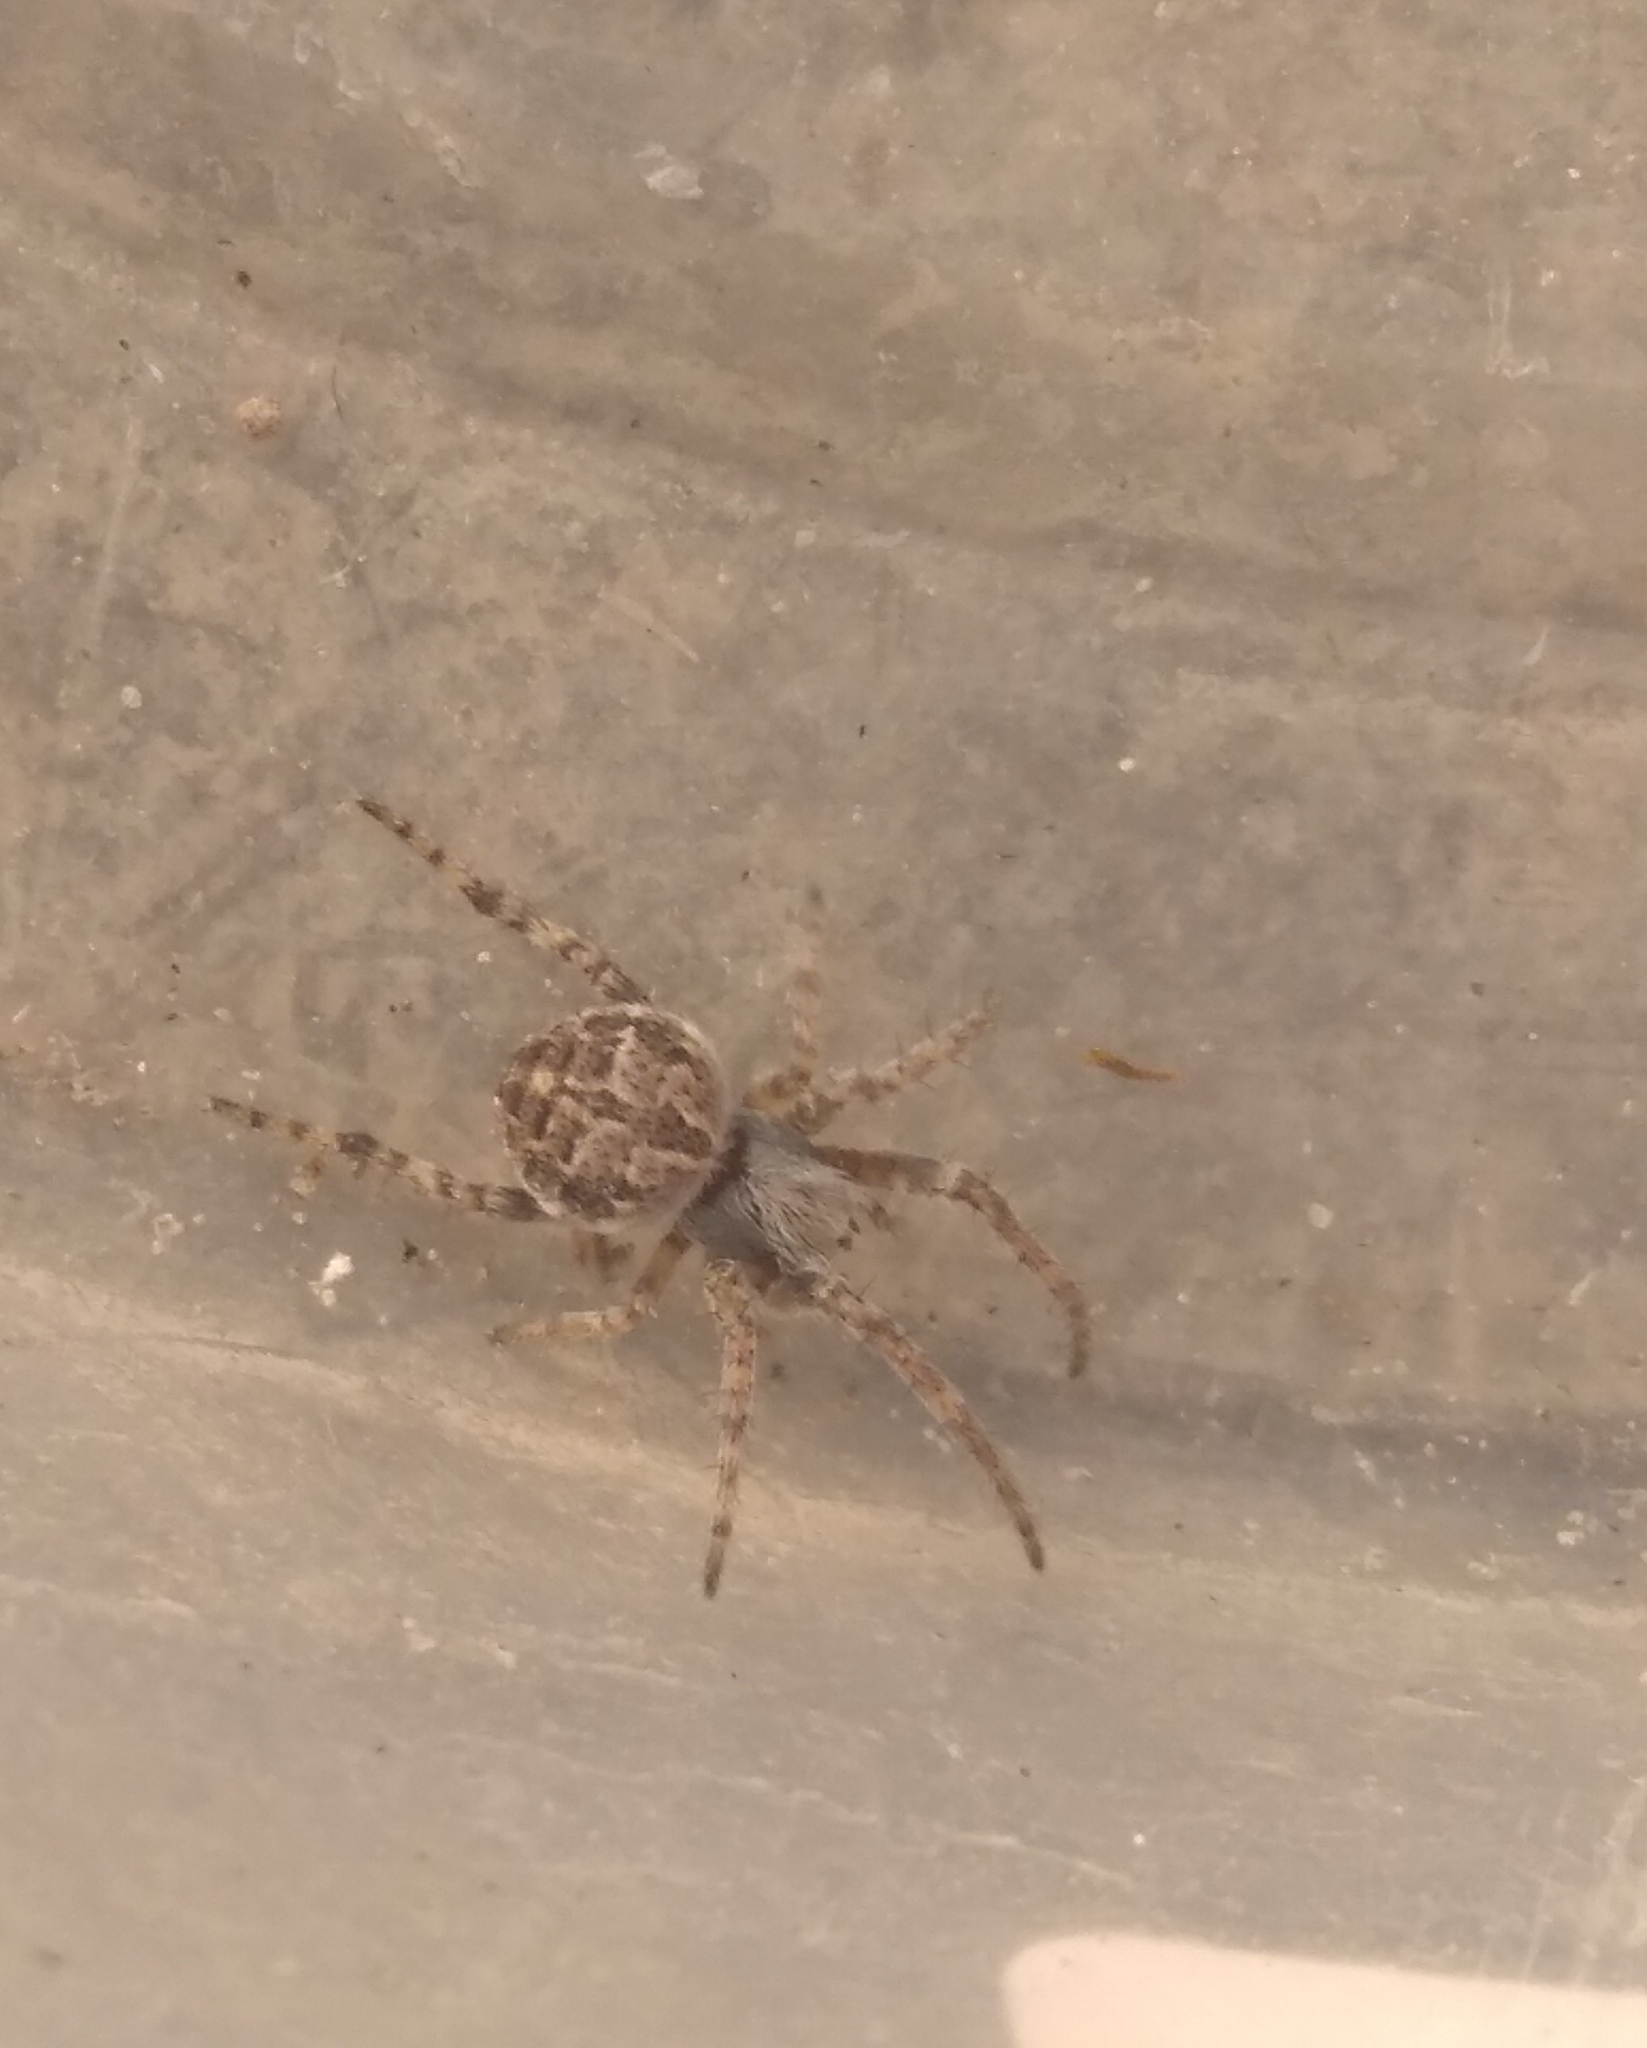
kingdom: Animalia
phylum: Arthropoda
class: Arachnida
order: Araneae
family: Araneidae
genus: Agalenatea
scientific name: Agalenatea redii
